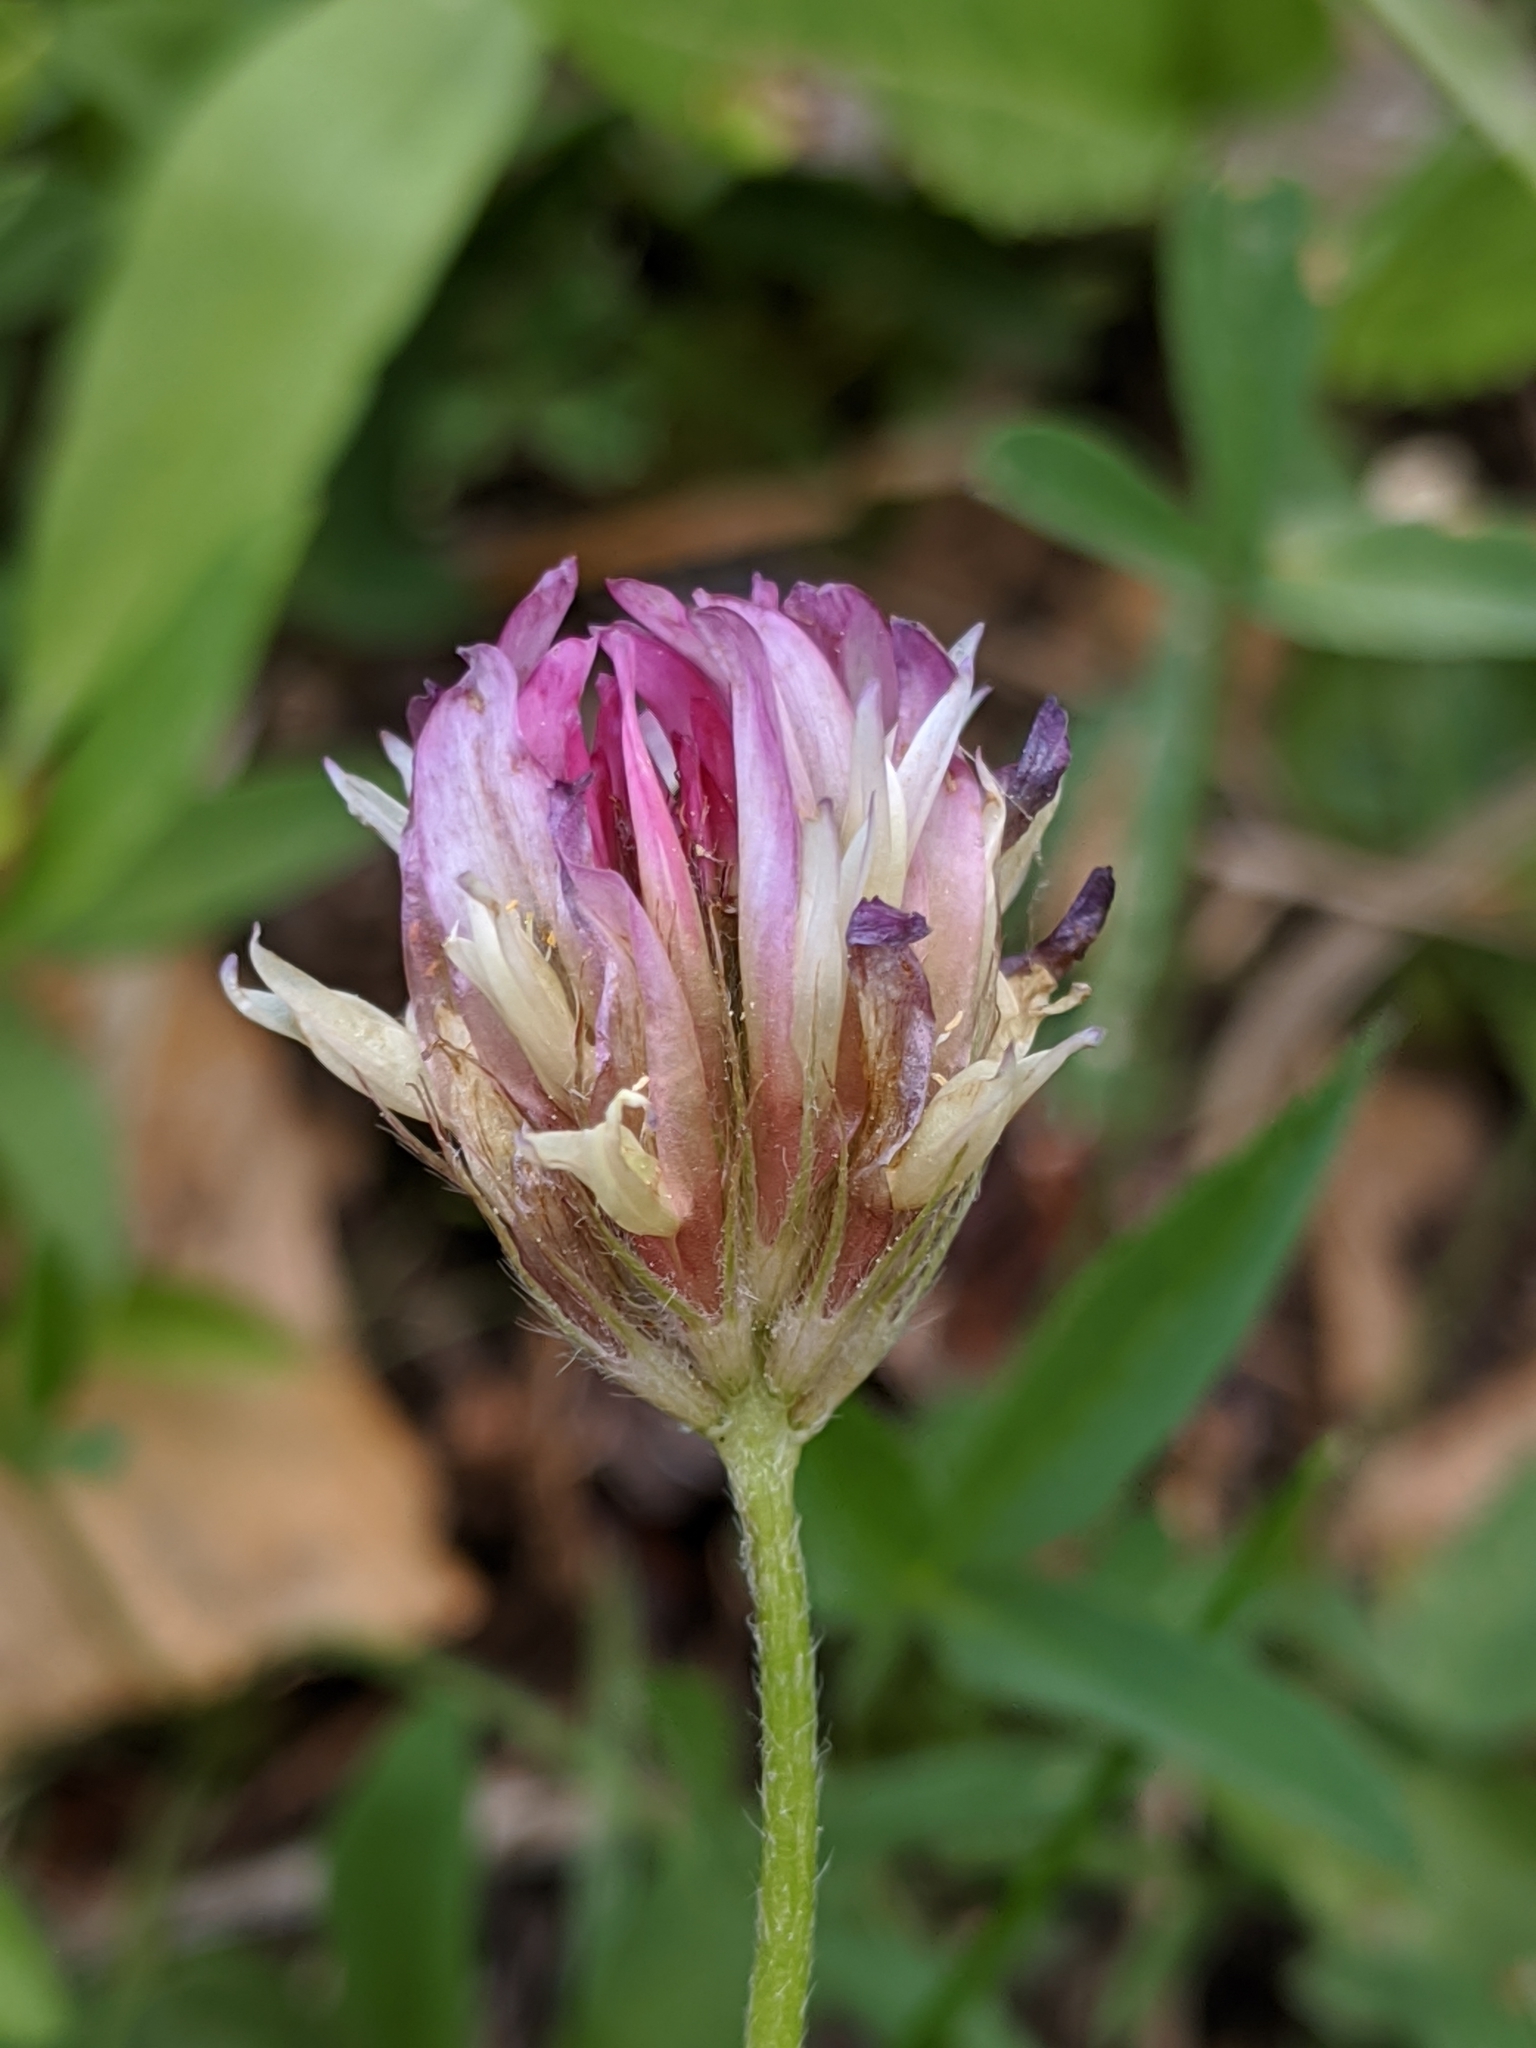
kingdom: Plantae
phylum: Tracheophyta
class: Magnoliopsida
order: Fabales
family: Fabaceae
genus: Trifolium
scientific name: Trifolium longipes
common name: Long-stalk clover
